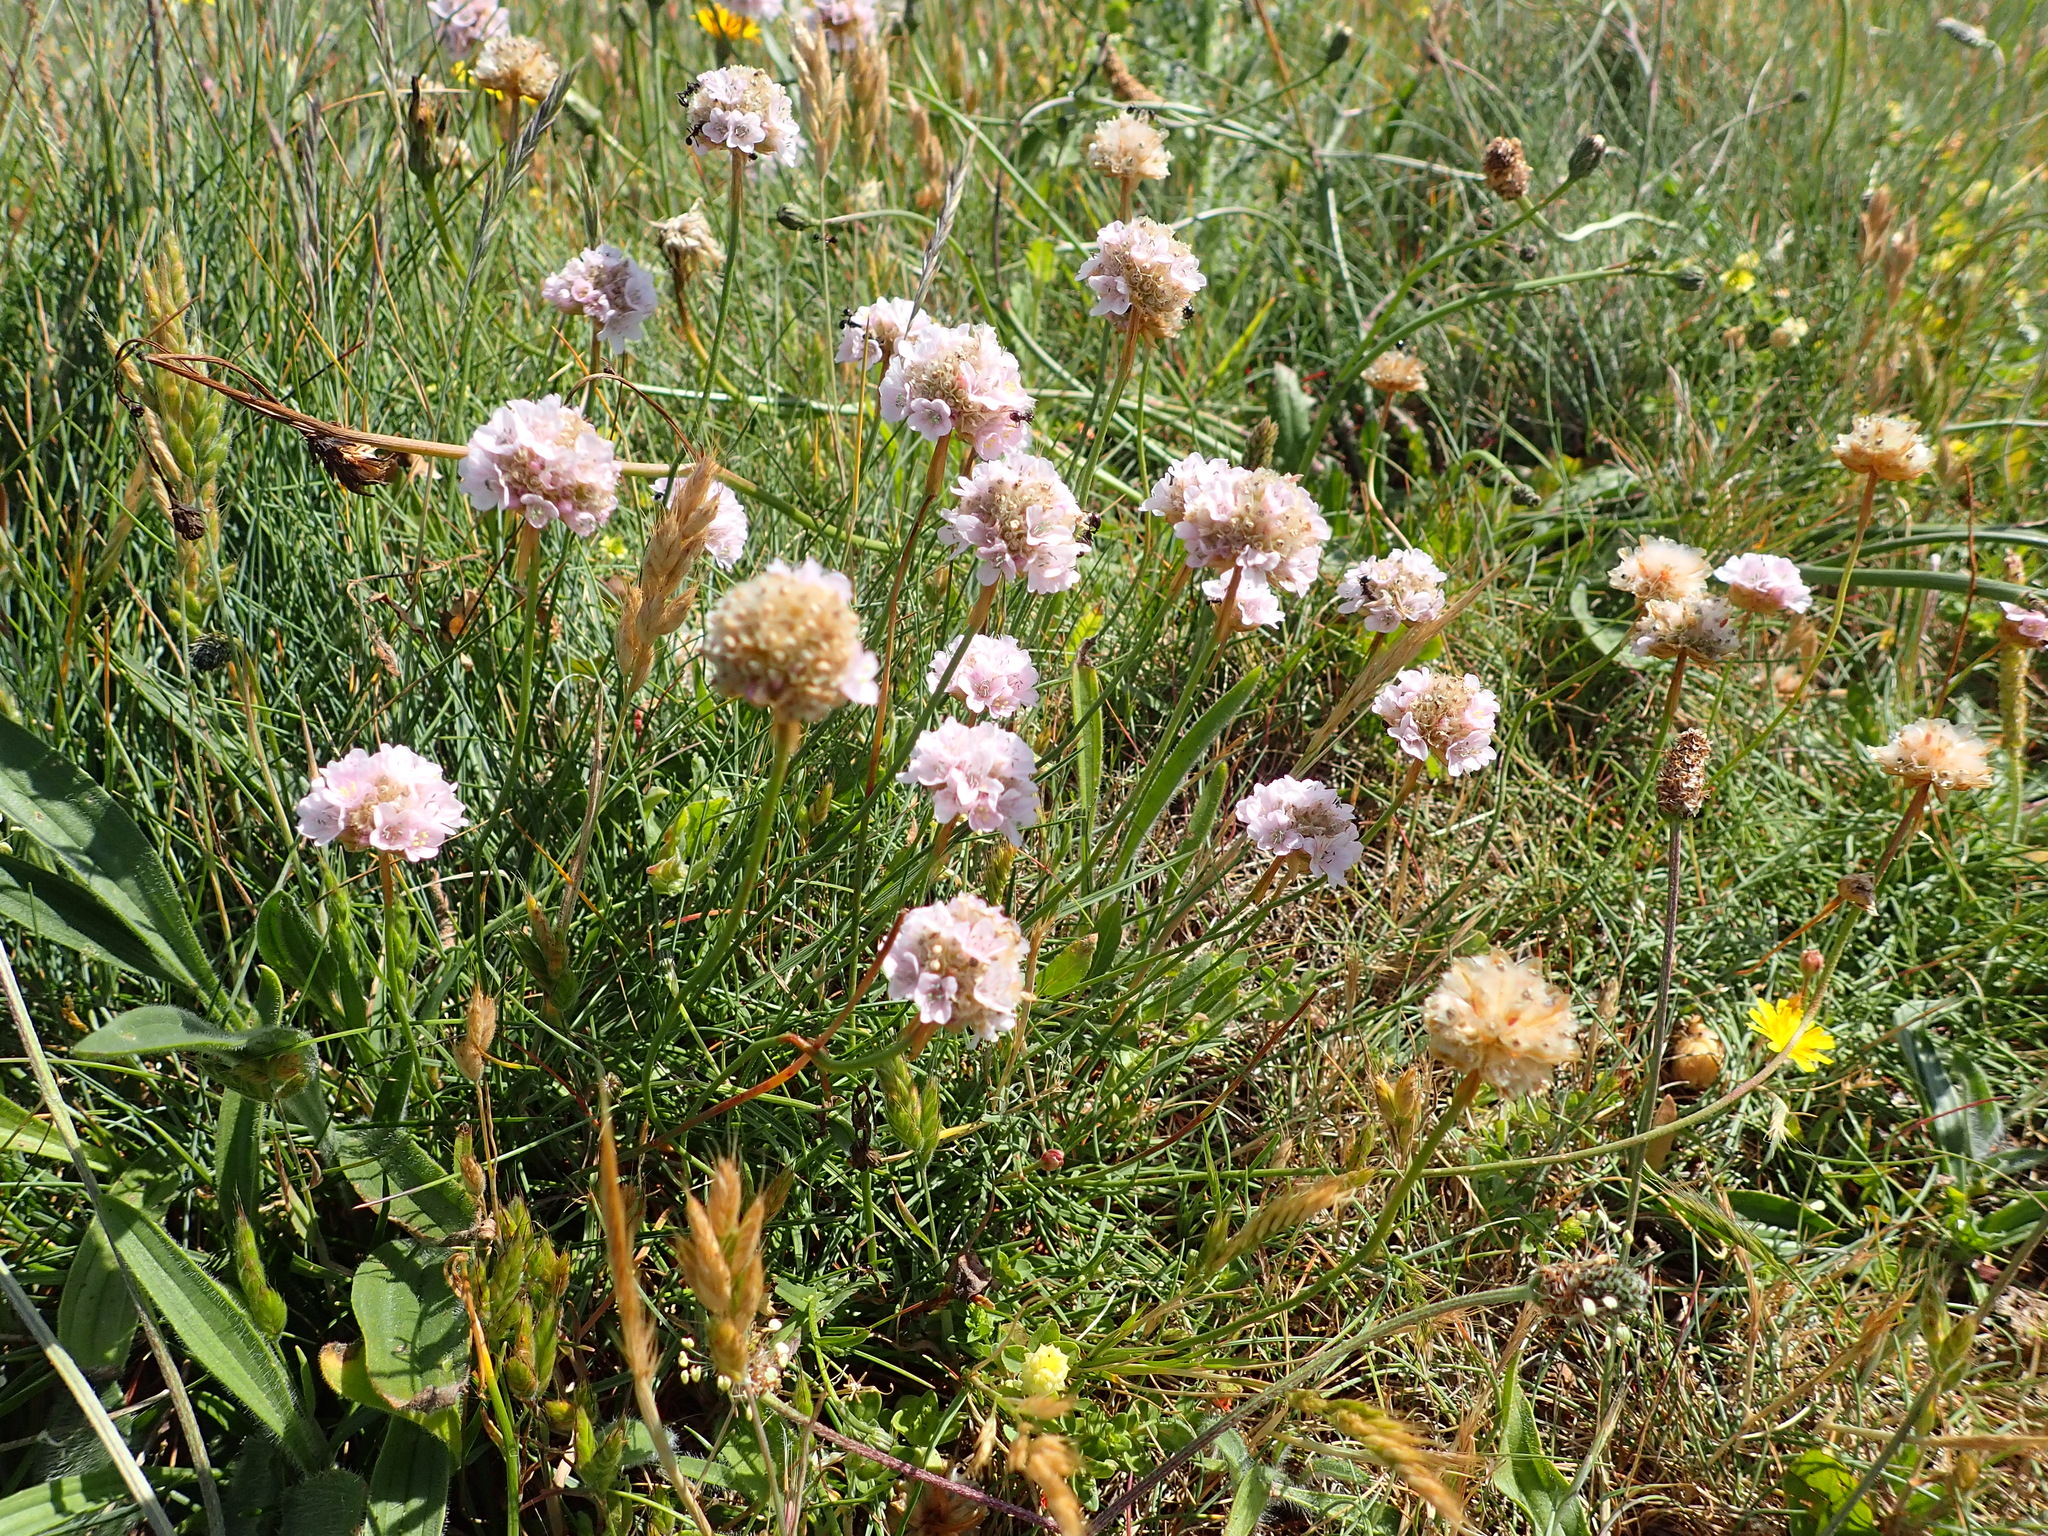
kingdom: Plantae
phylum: Tracheophyta
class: Magnoliopsida
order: Caryophyllales
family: Plumbaginaceae
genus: Armeria
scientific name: Armeria maritima
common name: Thrift
